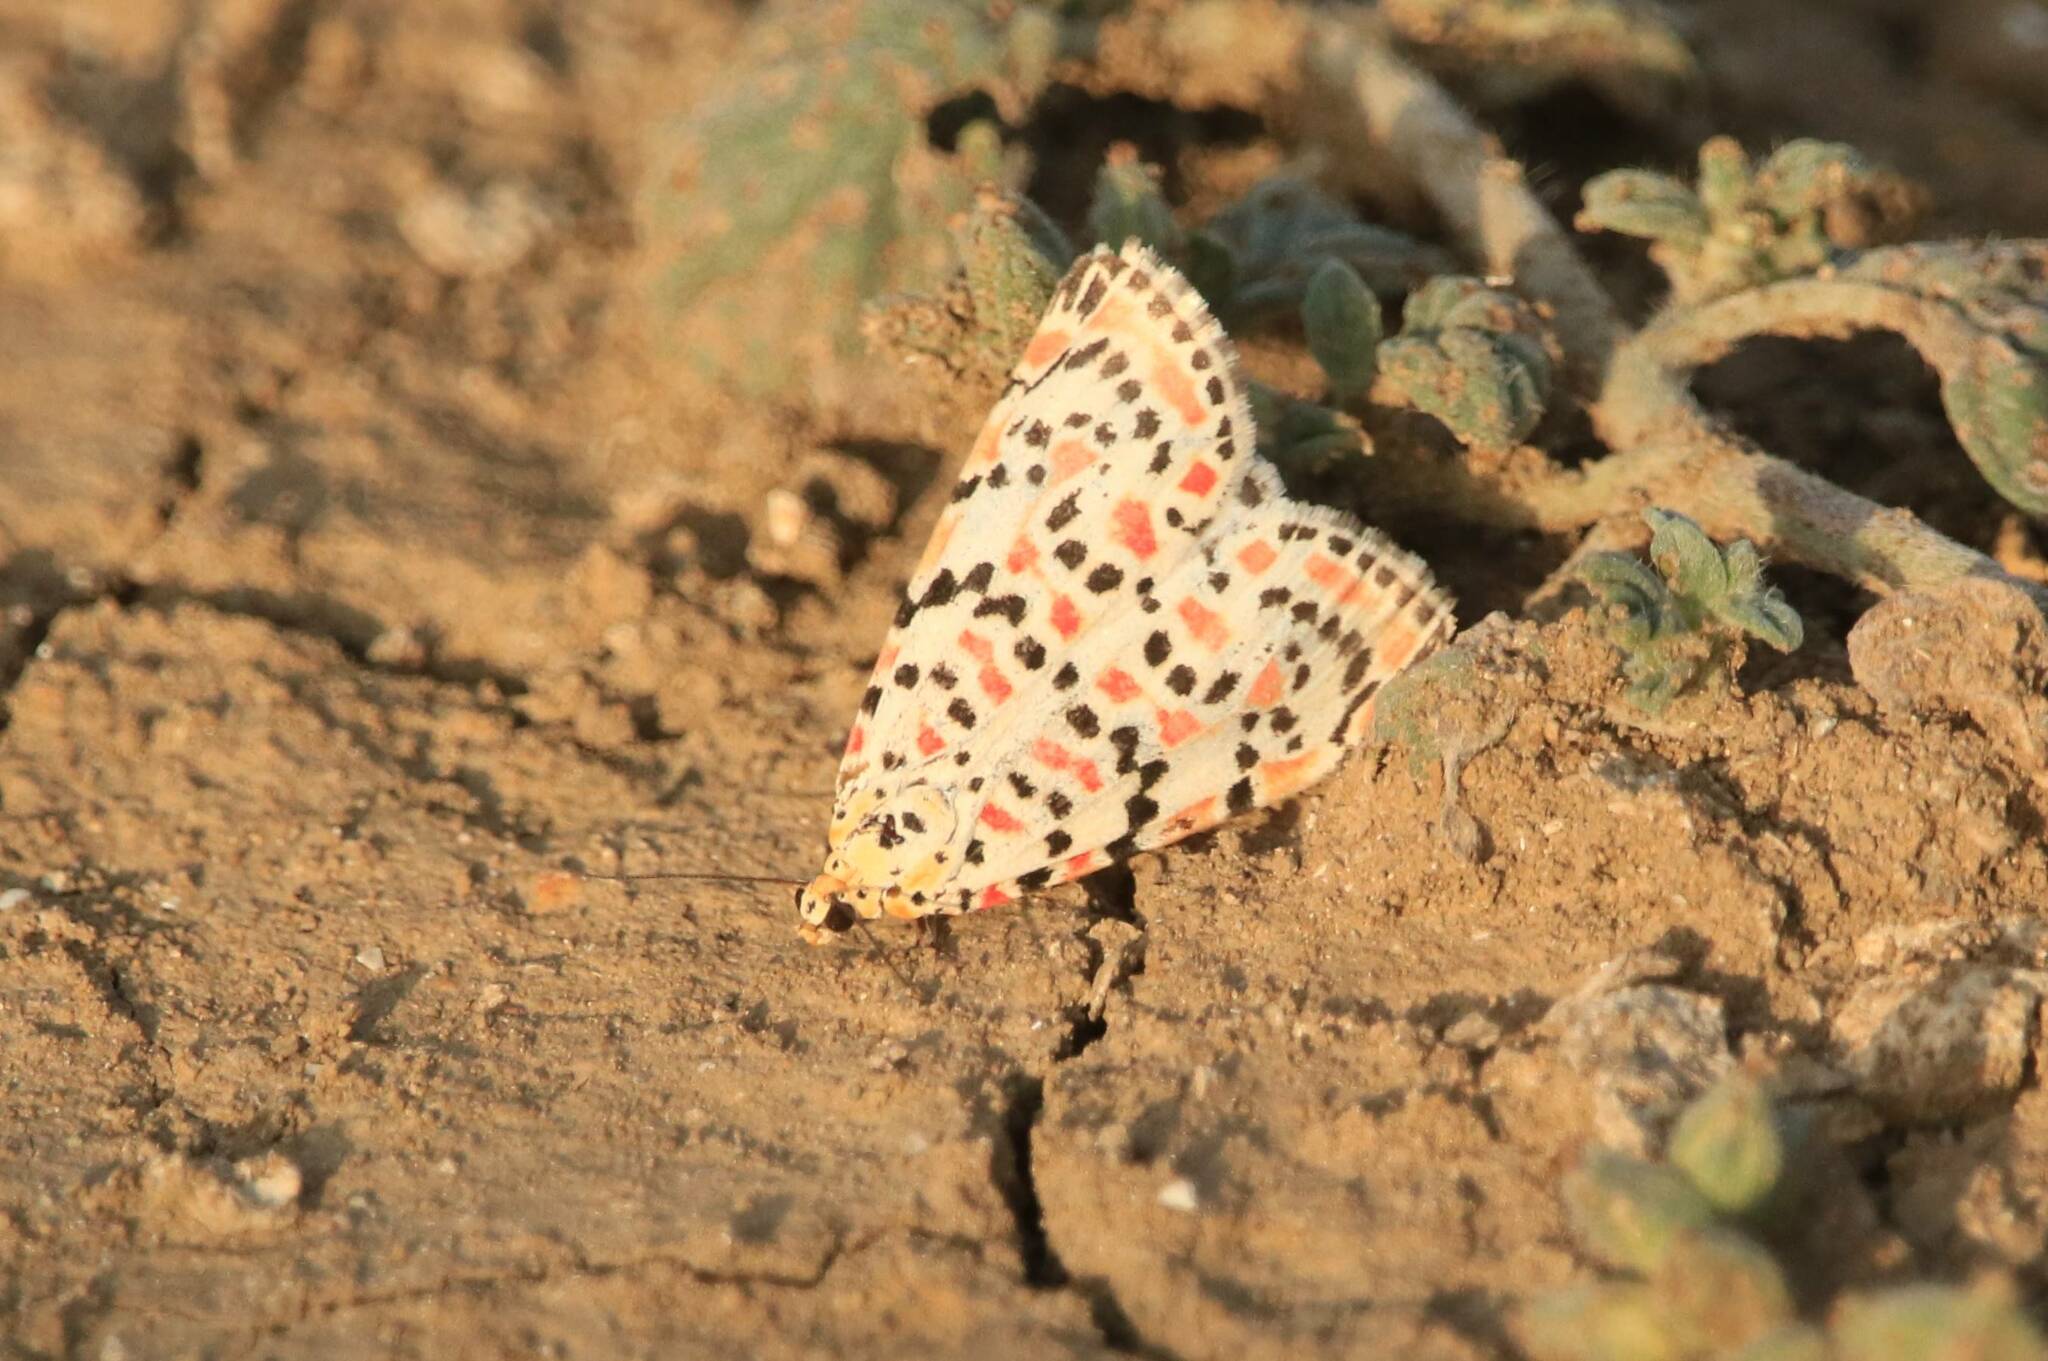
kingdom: Animalia
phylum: Arthropoda
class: Insecta
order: Lepidoptera
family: Erebidae
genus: Utetheisa
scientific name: Utetheisa pulchella
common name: Crimson speckled
